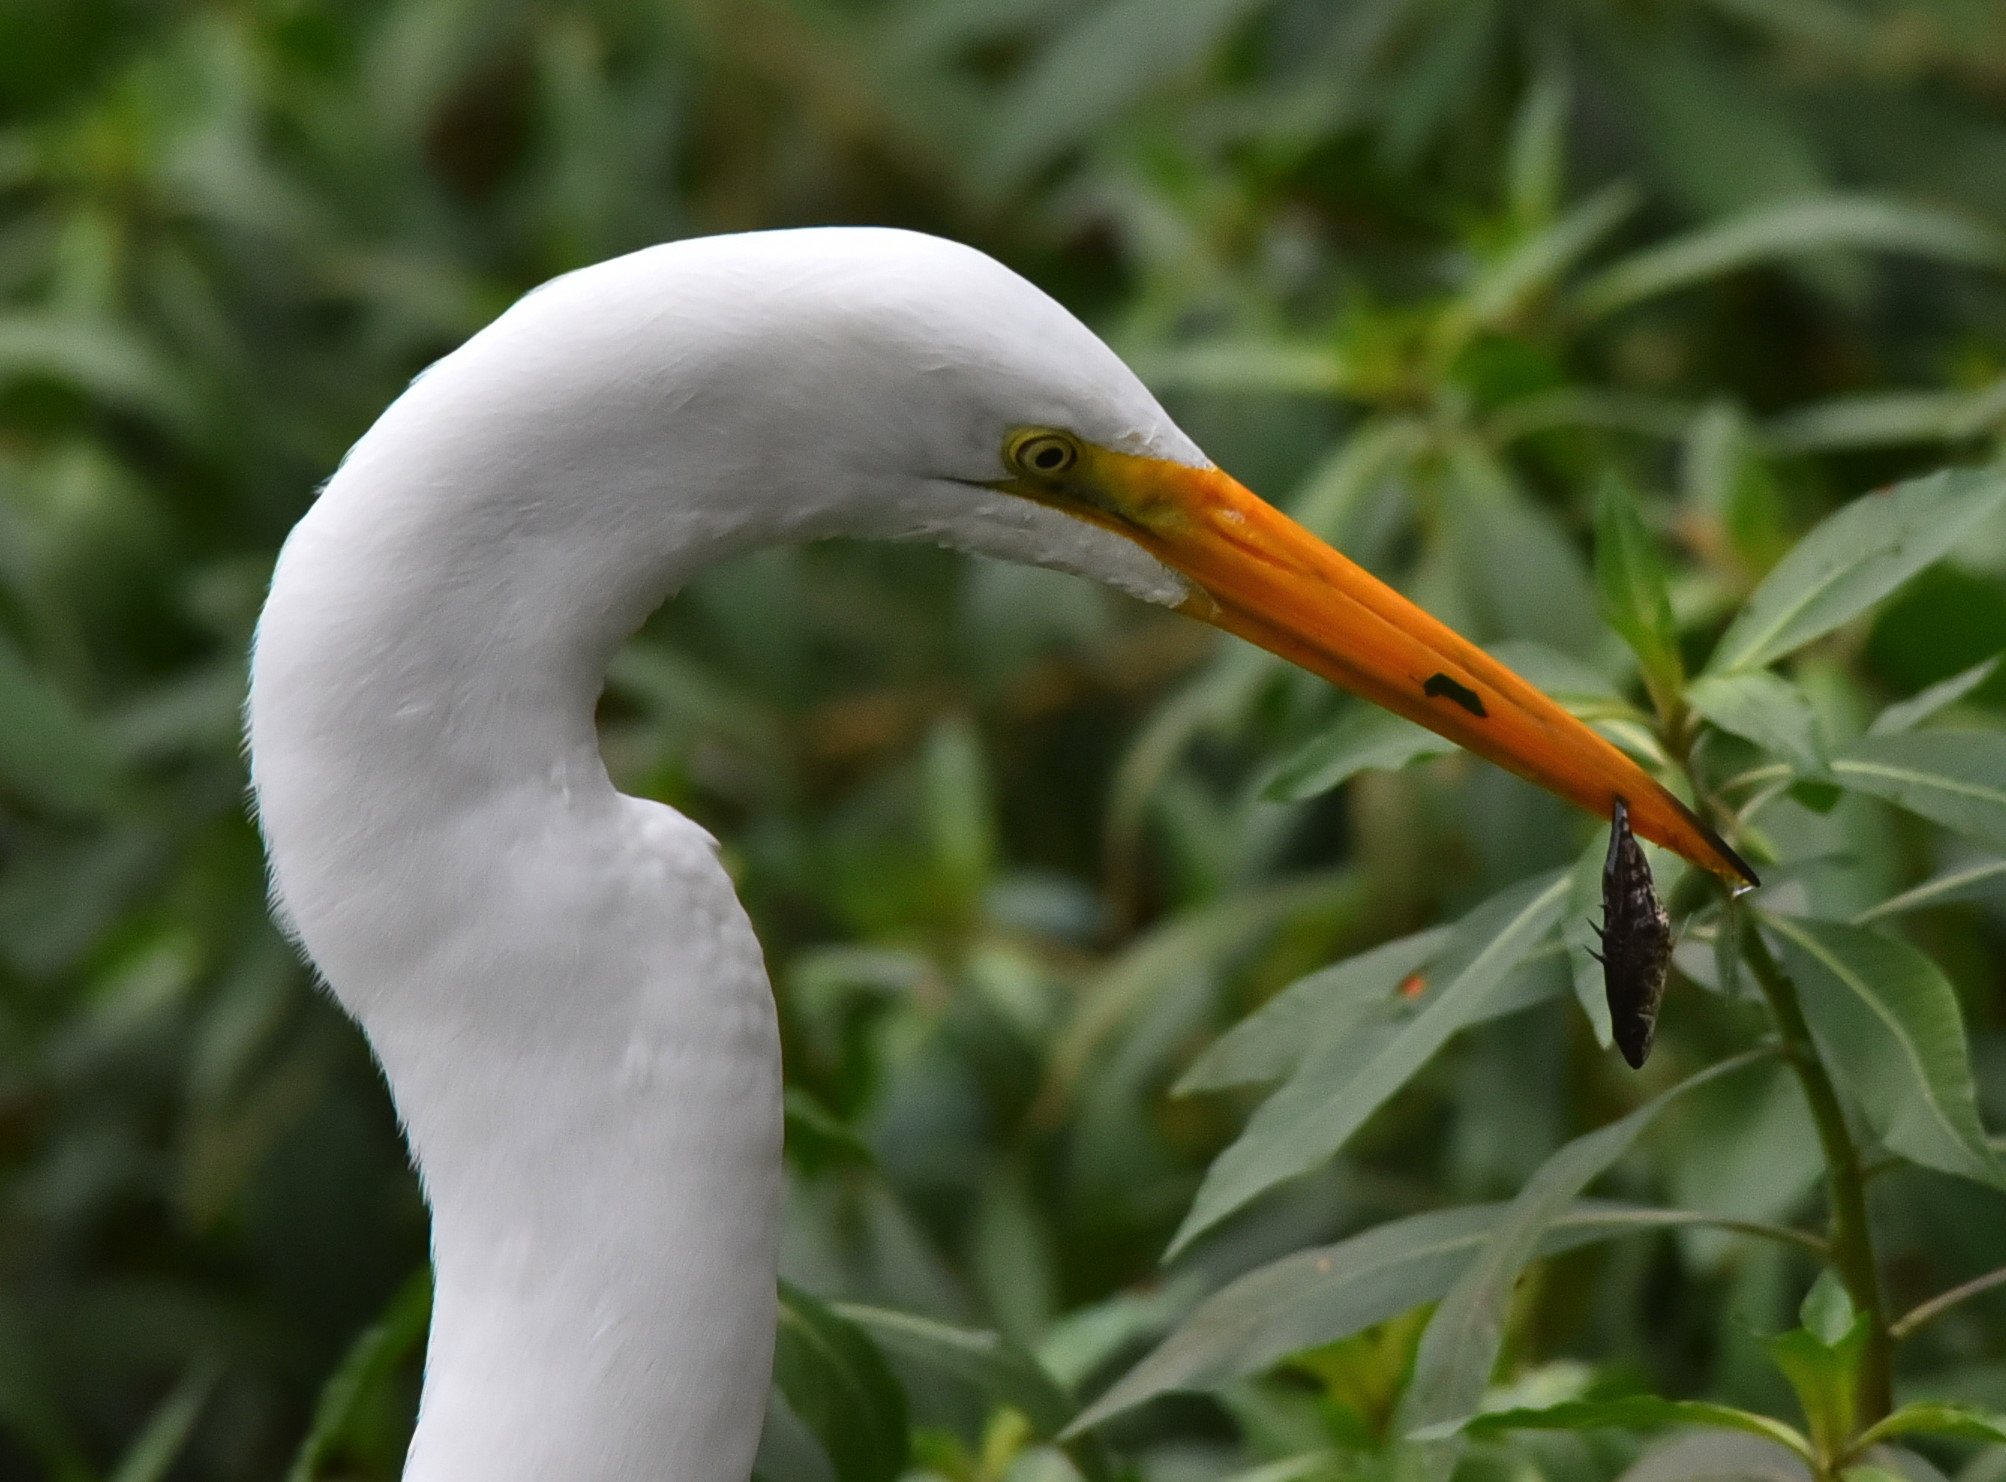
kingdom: Animalia
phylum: Chordata
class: Aves
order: Pelecaniformes
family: Ardeidae
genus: Ardea
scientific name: Ardea alba
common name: Great egret
